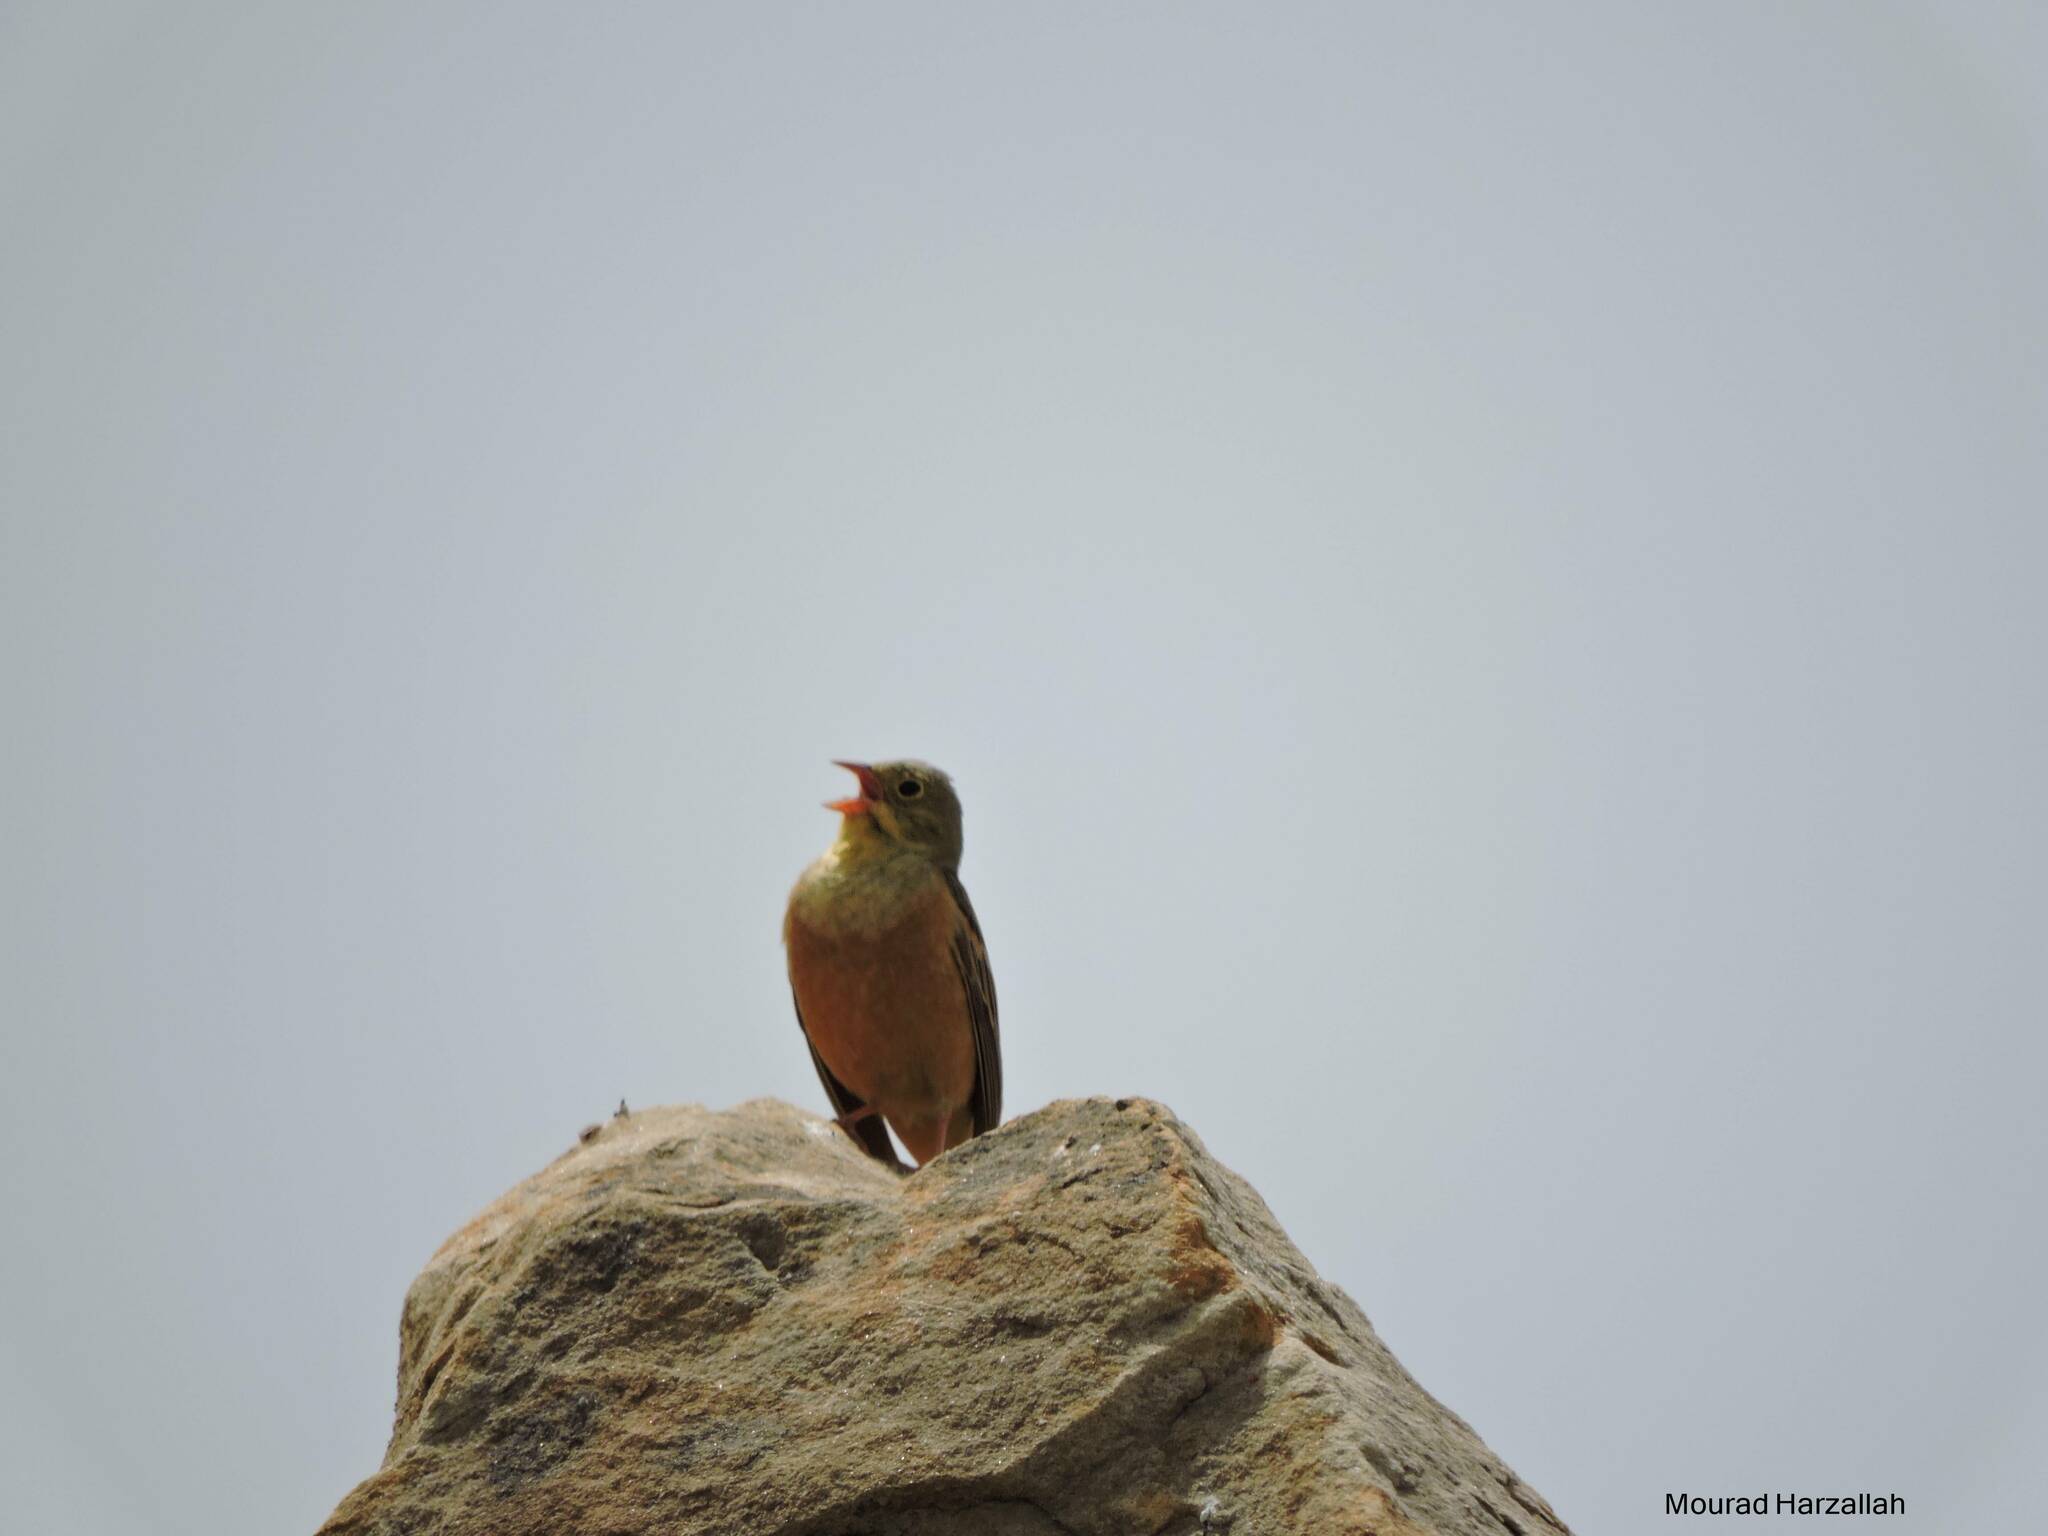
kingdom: Animalia
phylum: Chordata
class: Aves
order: Passeriformes
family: Emberizidae
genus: Emberiza
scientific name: Emberiza hortulana
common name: Ortolan bunting
